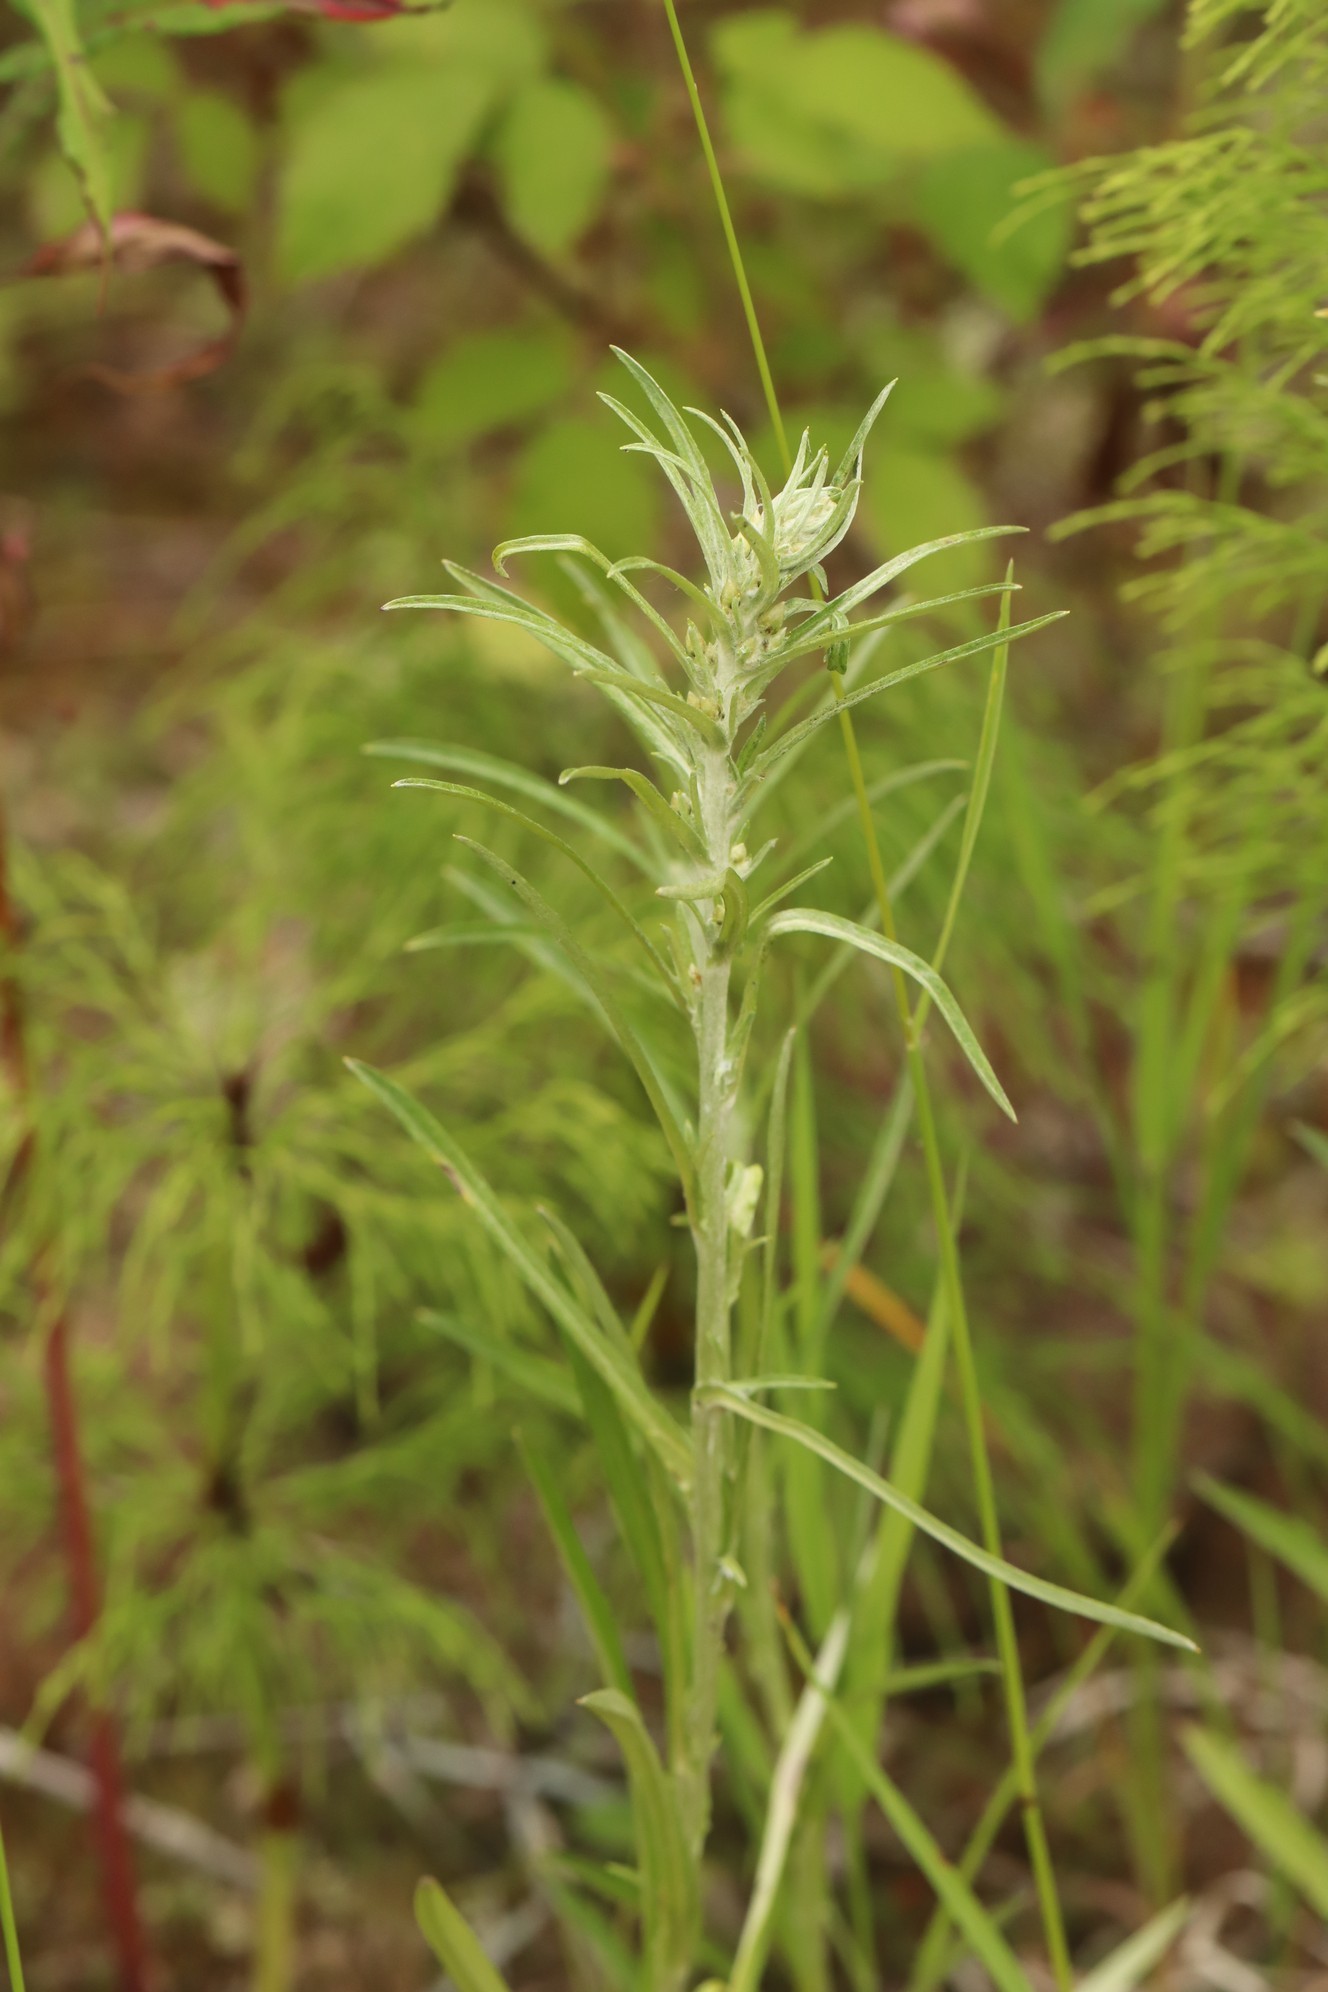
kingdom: Plantae
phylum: Tracheophyta
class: Magnoliopsida
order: Asterales
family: Asteraceae
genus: Omalotheca
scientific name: Omalotheca sylvatica
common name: Heath cudweed
